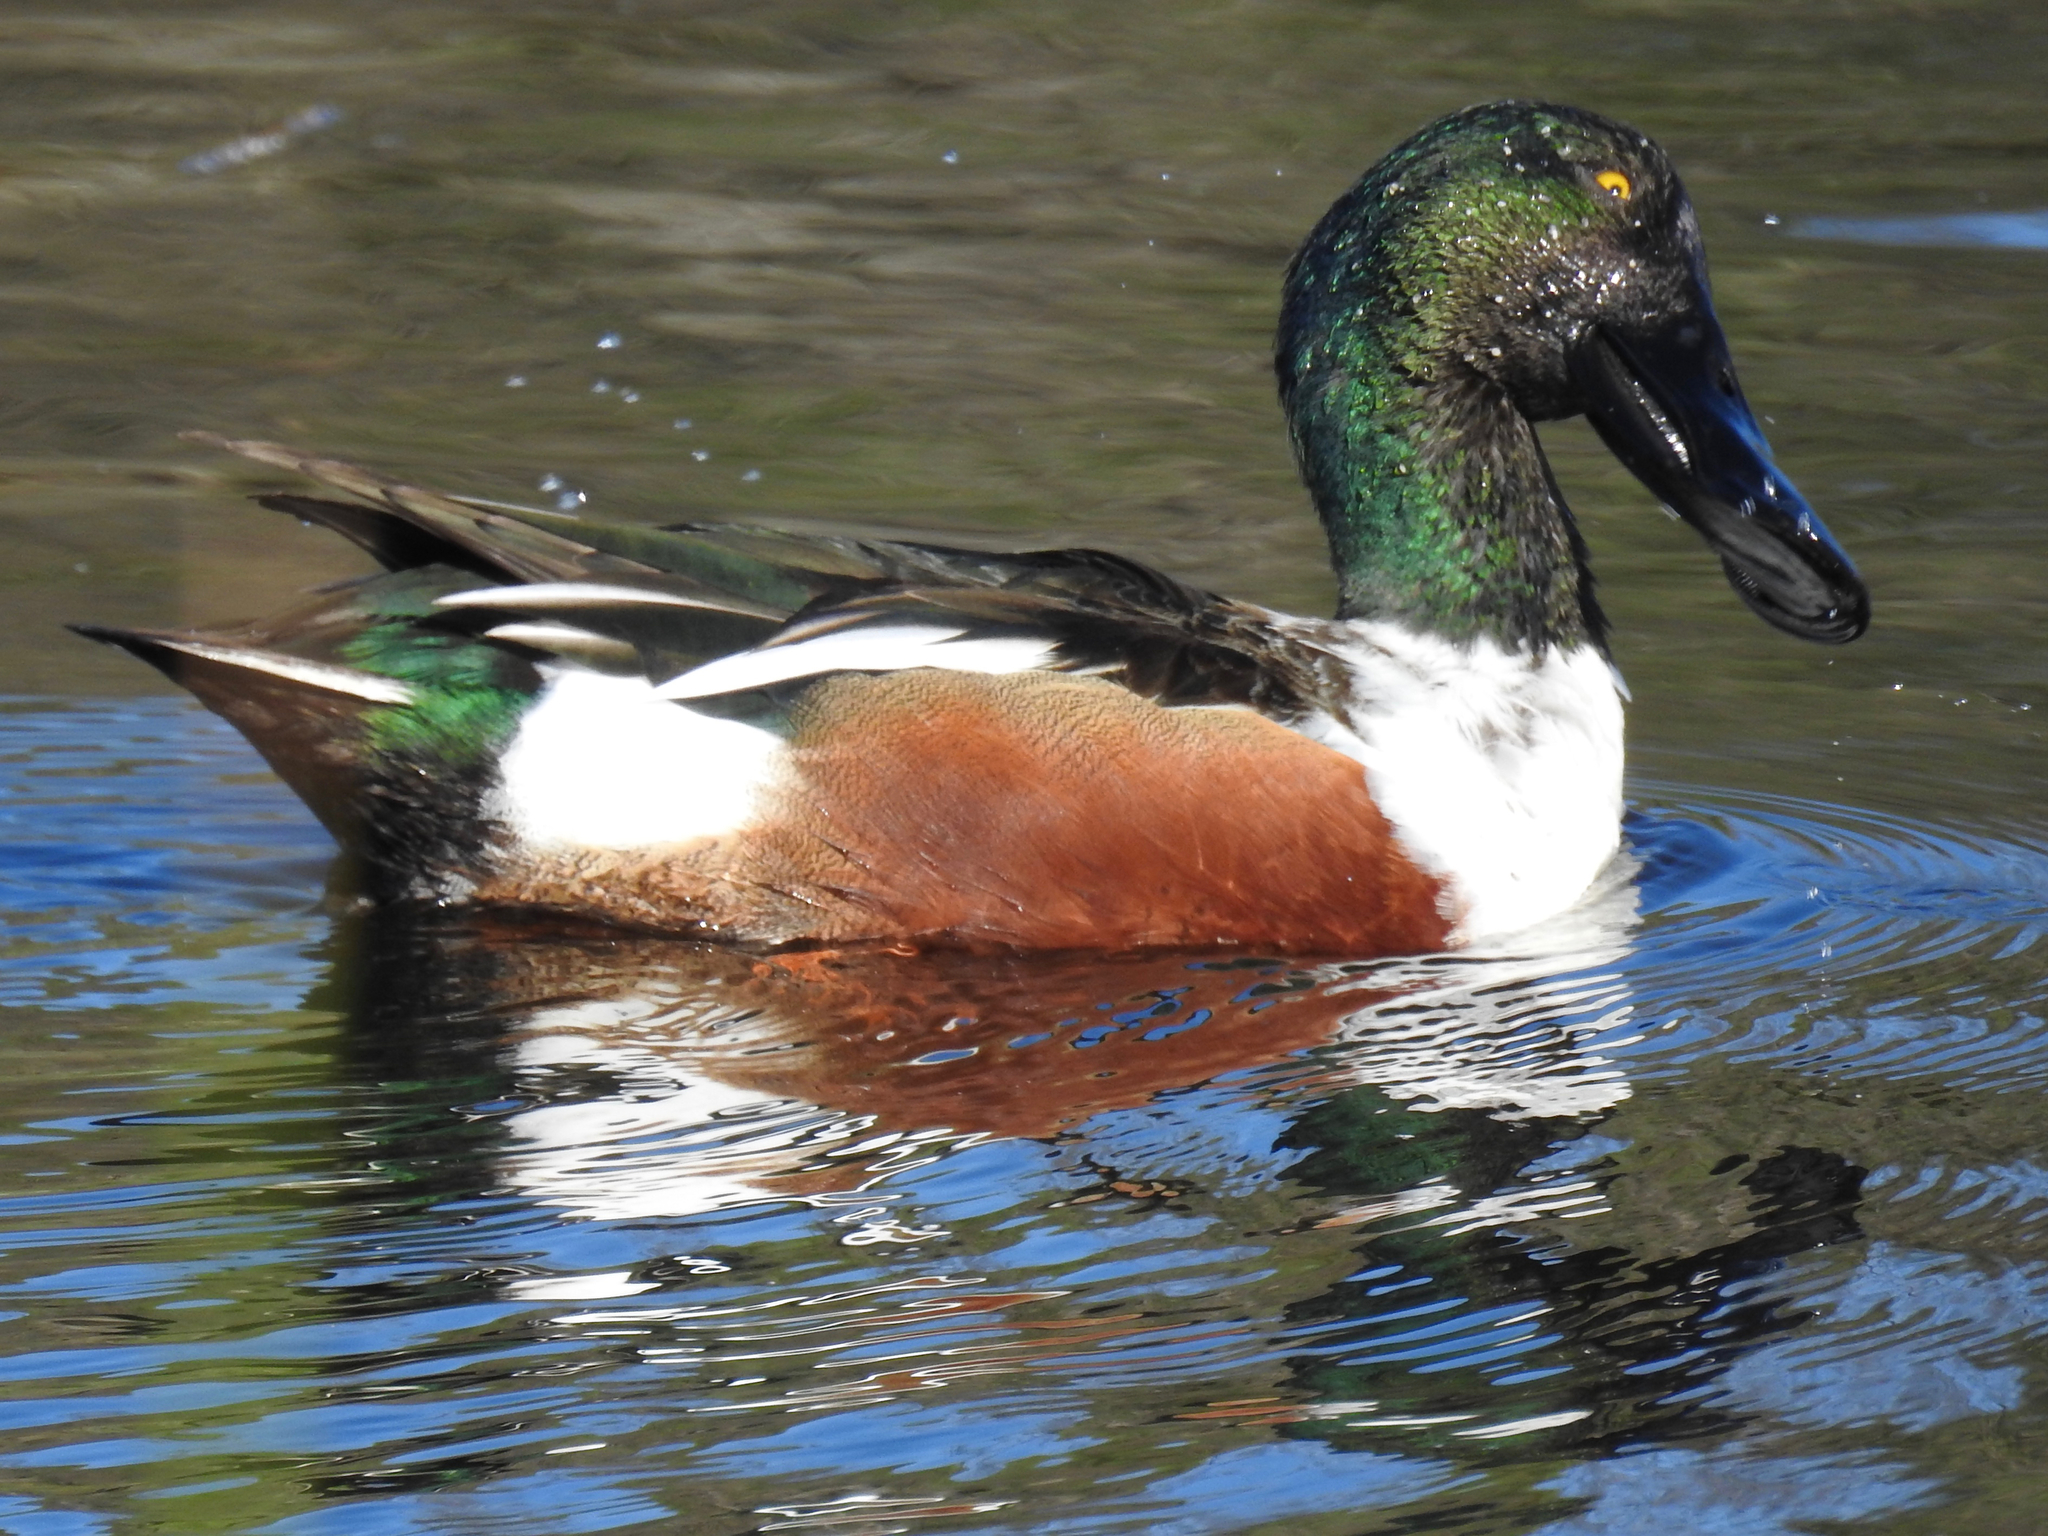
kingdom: Animalia
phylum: Chordata
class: Aves
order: Anseriformes
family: Anatidae
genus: Spatula
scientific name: Spatula clypeata
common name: Northern shoveler
